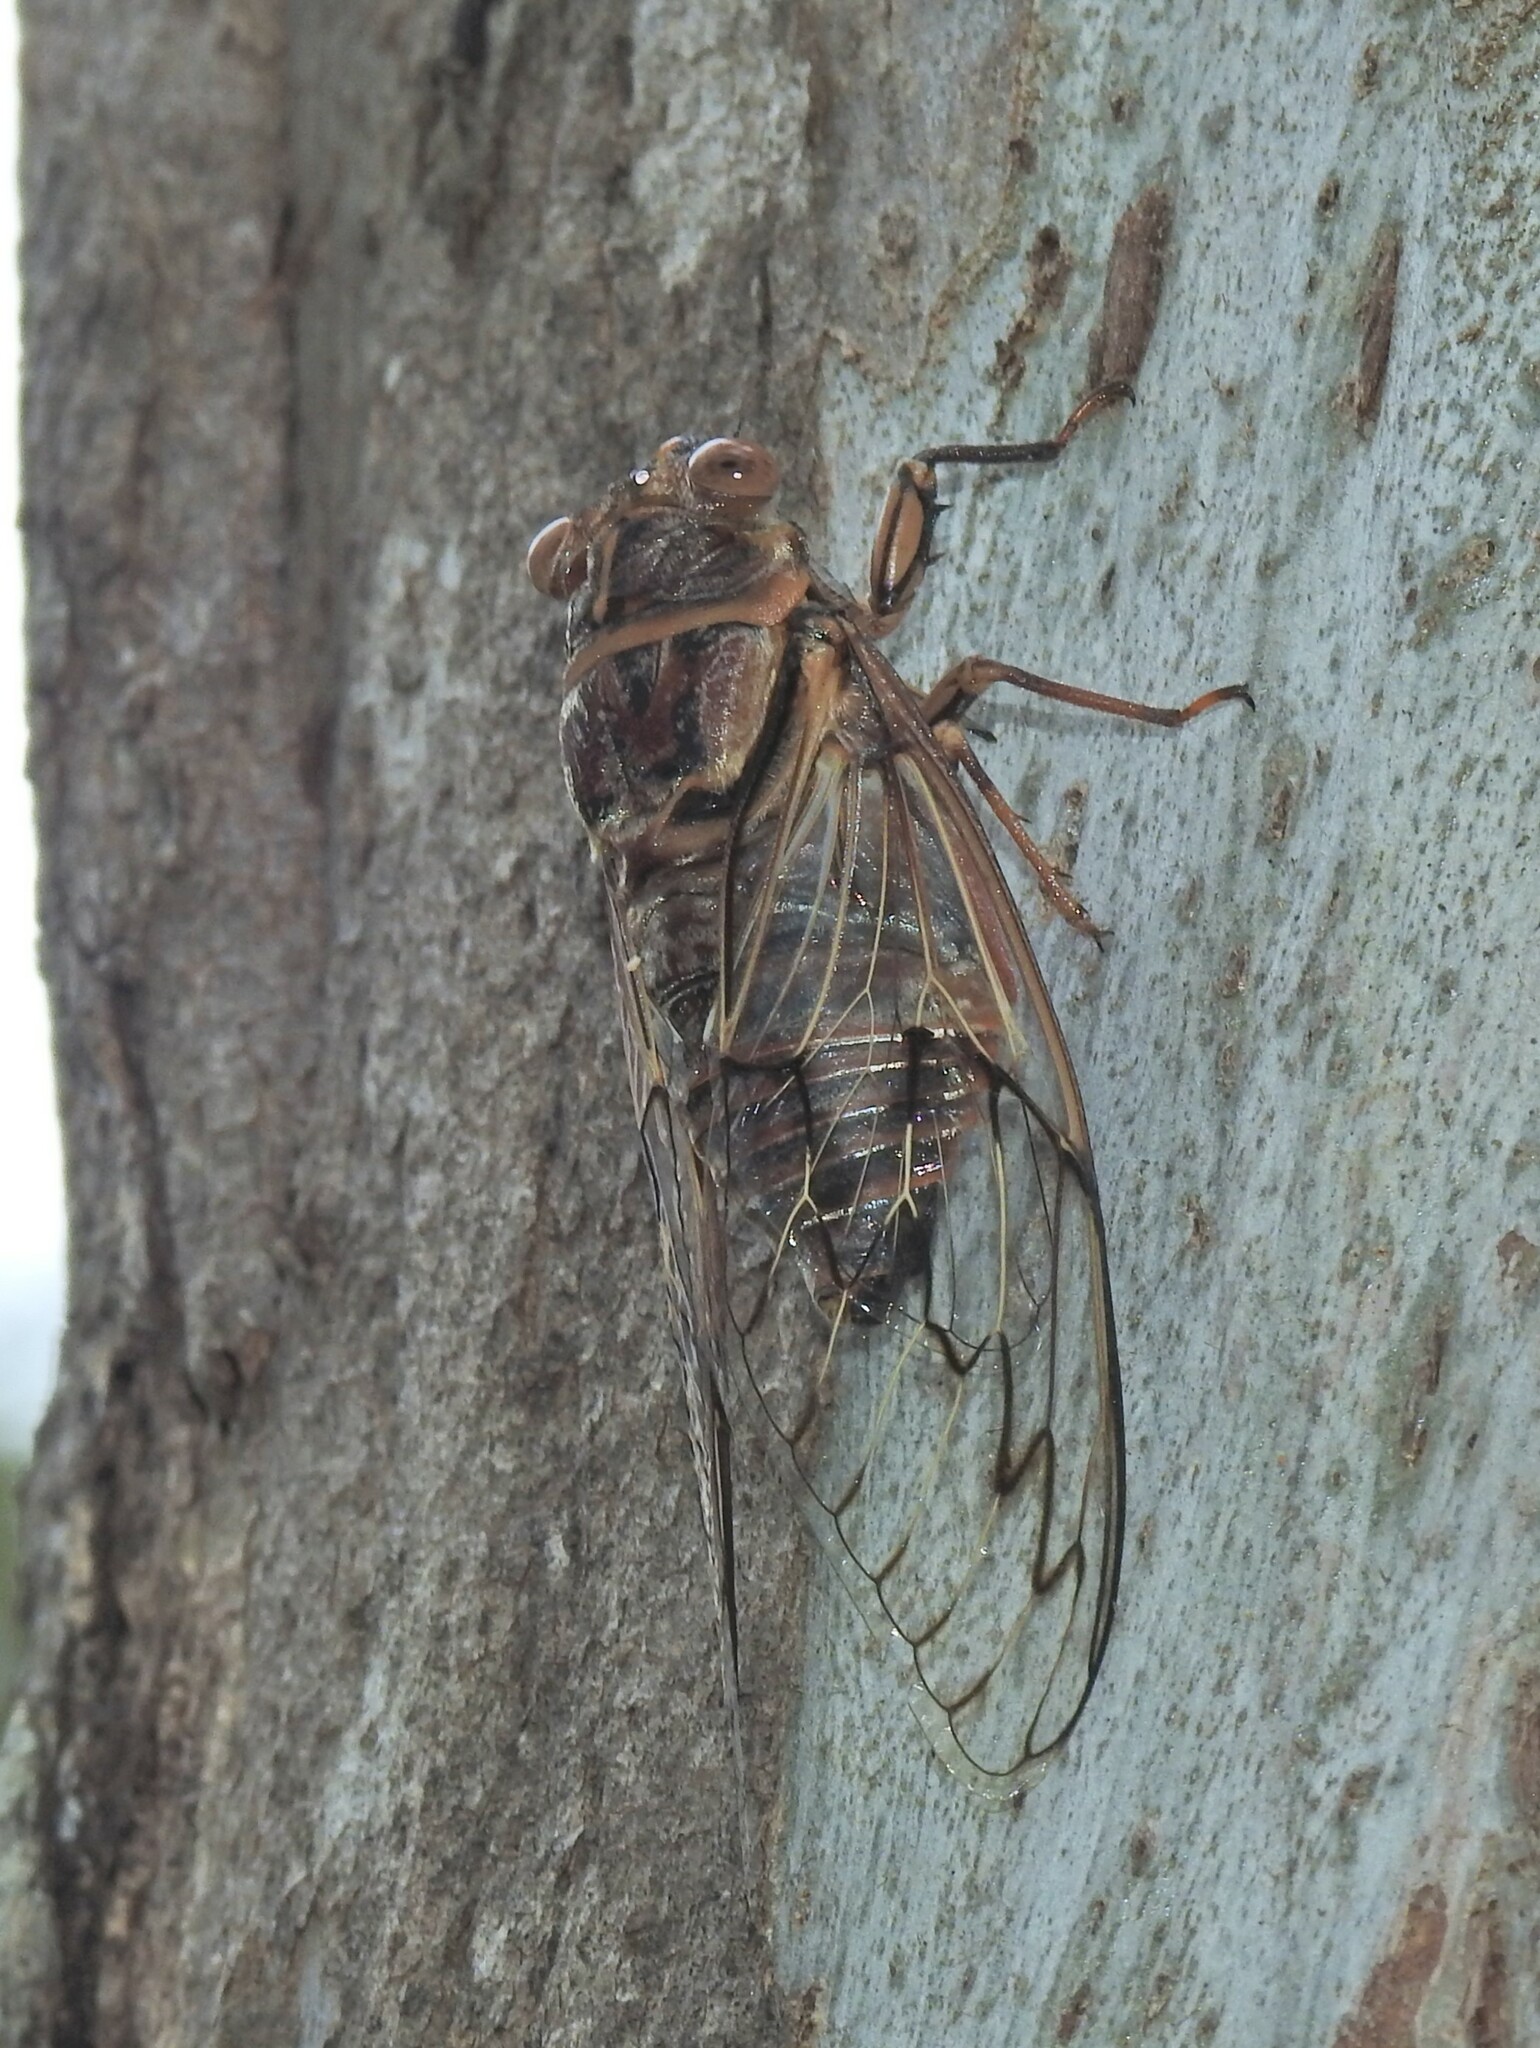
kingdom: Animalia
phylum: Arthropoda
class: Insecta
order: Hemiptera
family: Cicadidae
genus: Henicopsaltria
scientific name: Henicopsaltria eydouxii
